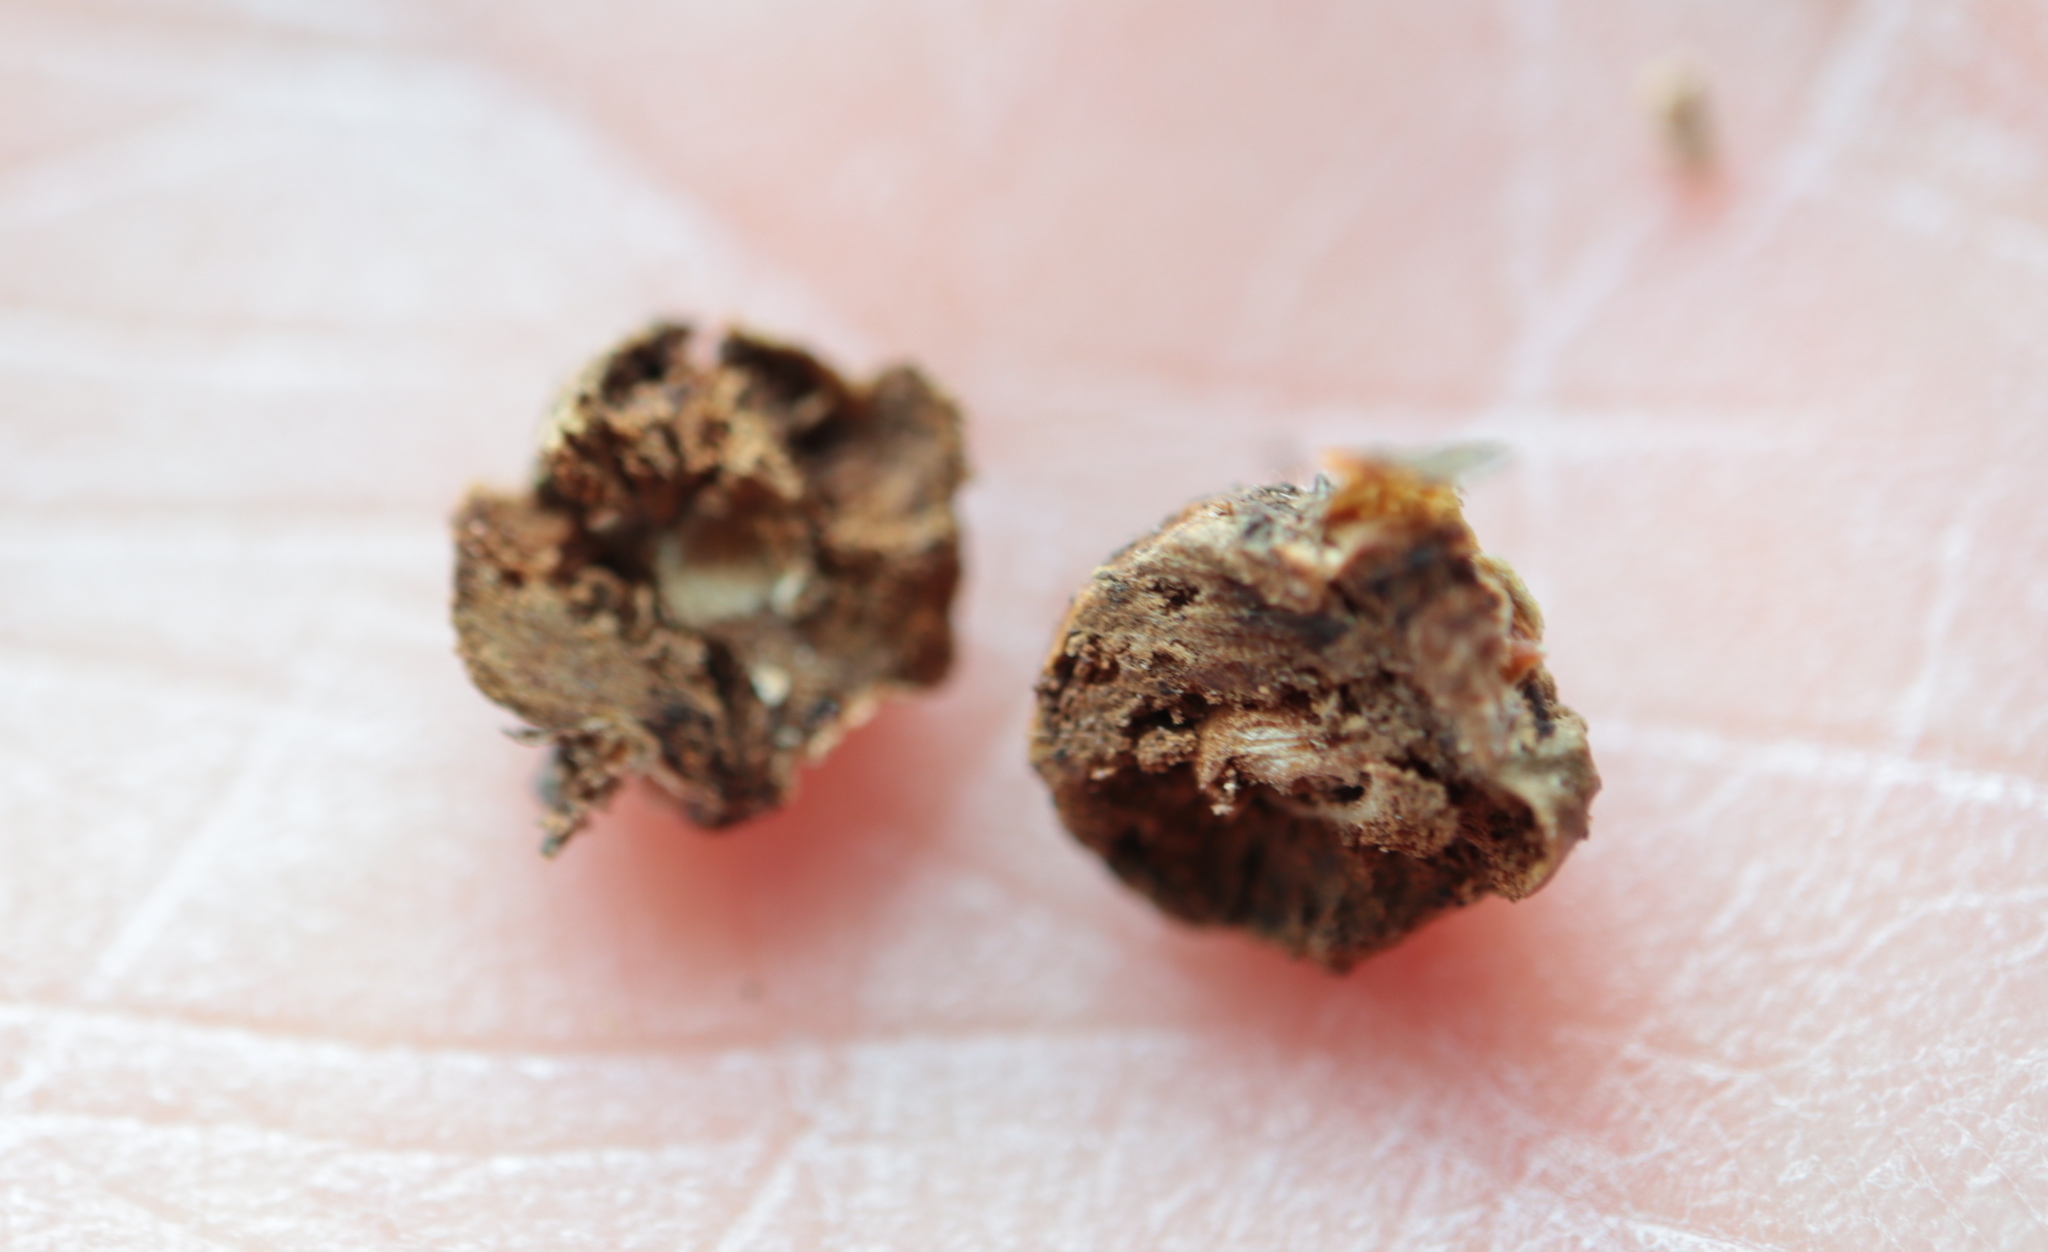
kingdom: Animalia
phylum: Arthropoda
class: Insecta
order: Hymenoptera
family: Cynipidae
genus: Disholcaspis
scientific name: Disholcaspis quercusglobulus
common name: Round bullet gall wasp
